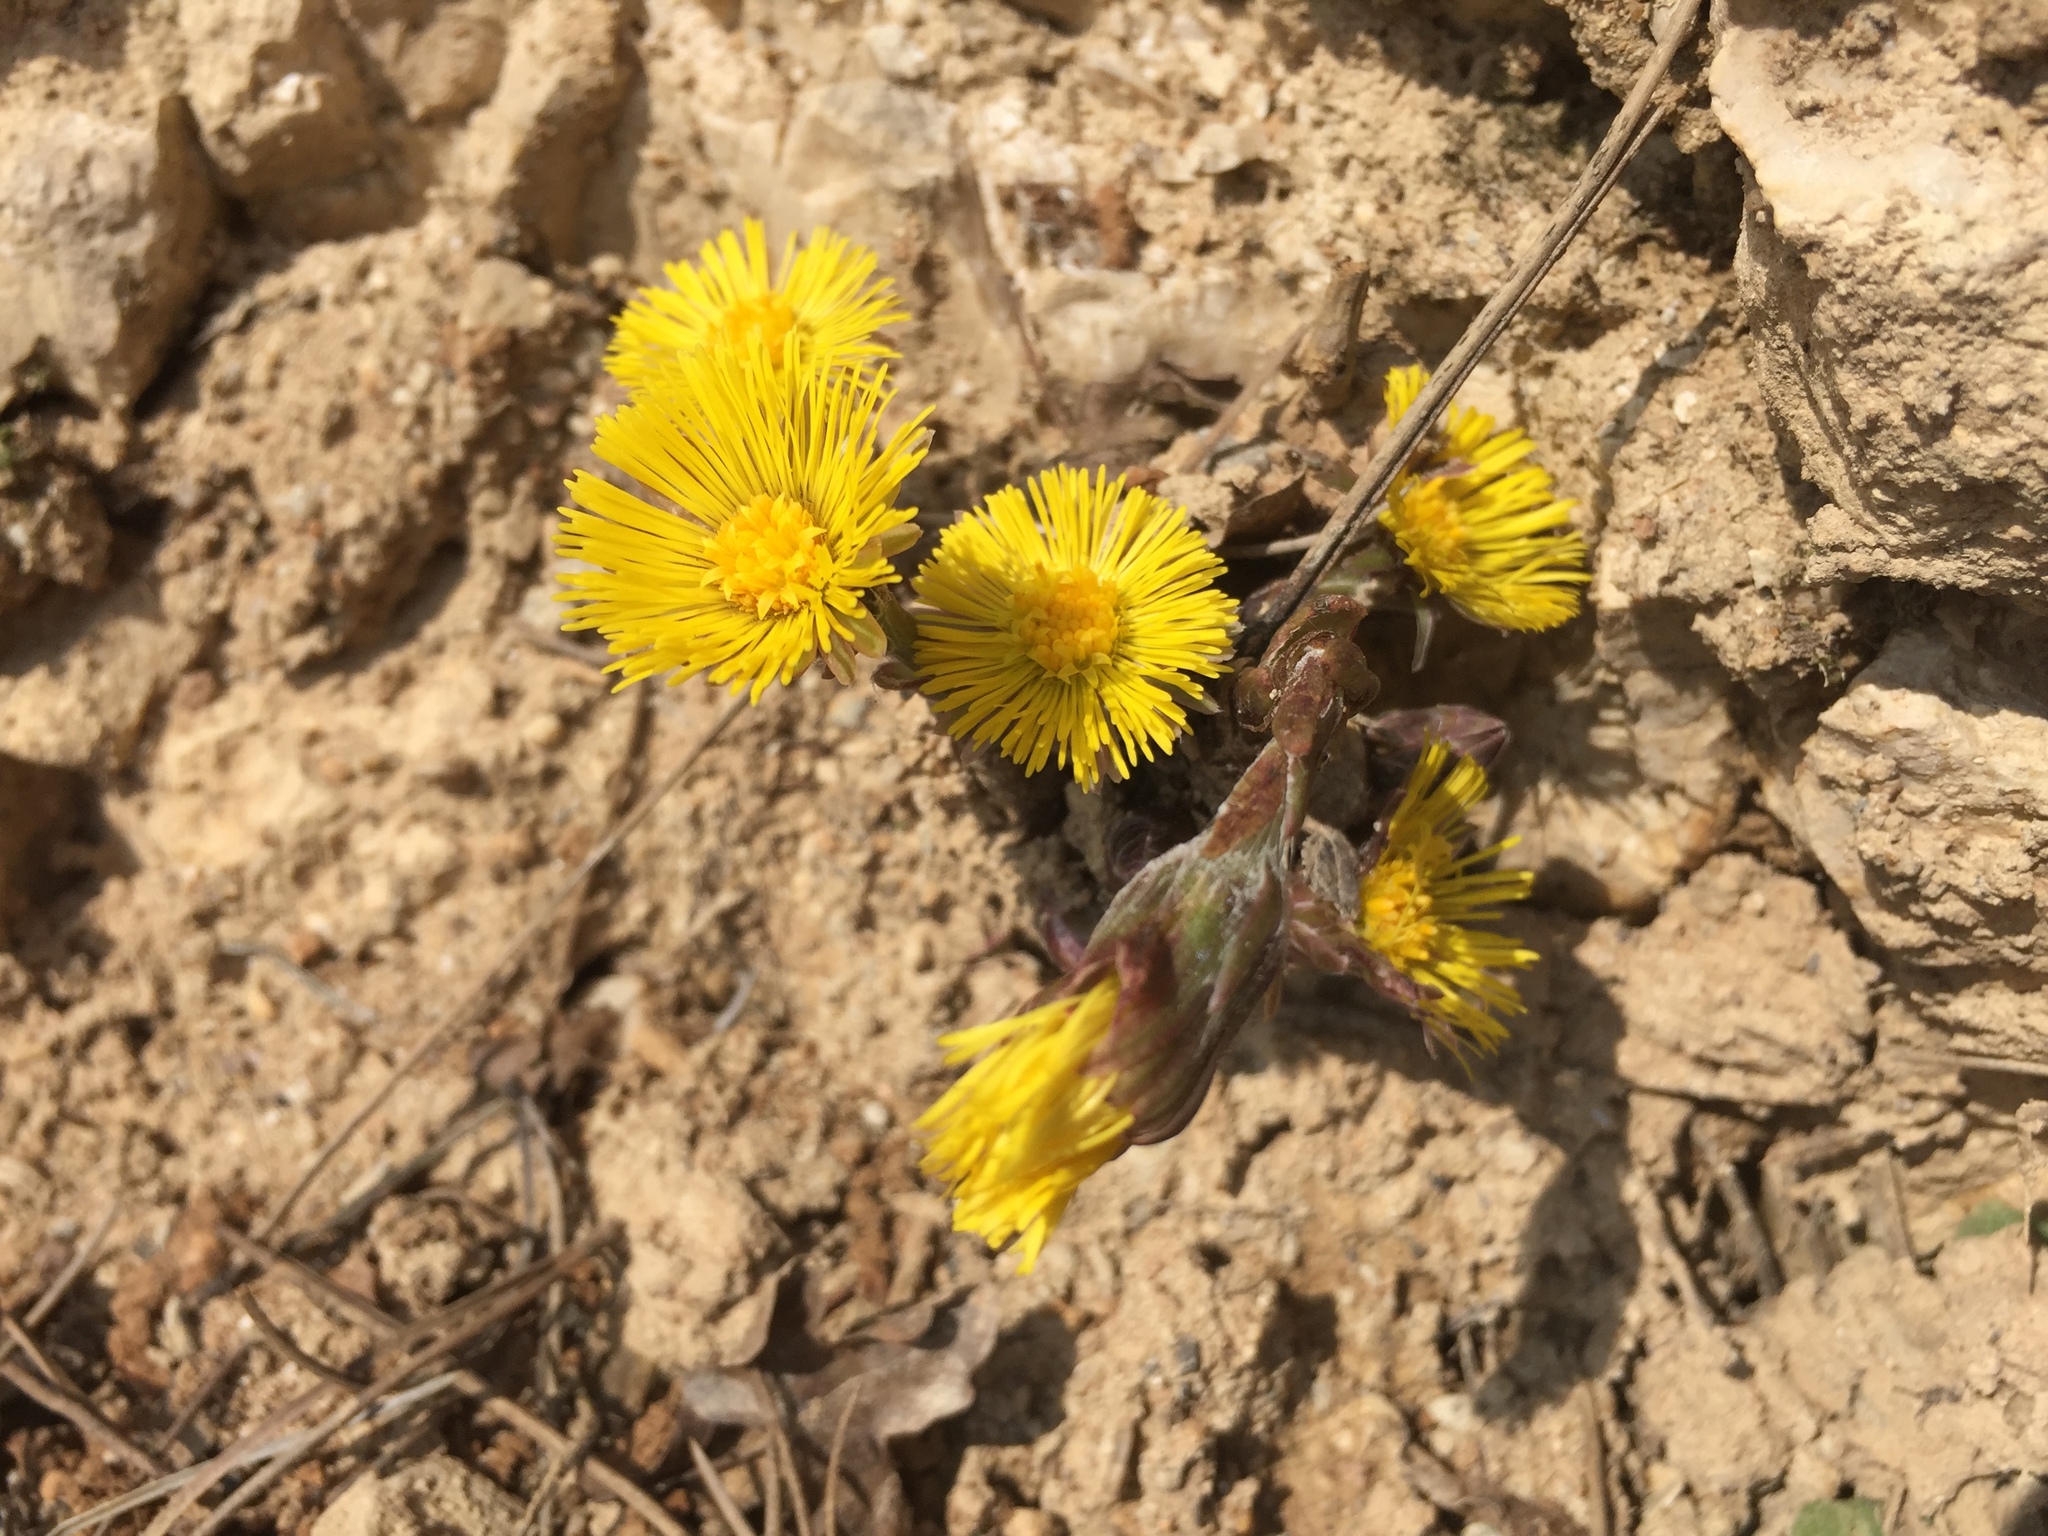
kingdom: Plantae
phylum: Tracheophyta
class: Magnoliopsida
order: Asterales
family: Asteraceae
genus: Tussilago
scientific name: Tussilago farfara
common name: Coltsfoot
